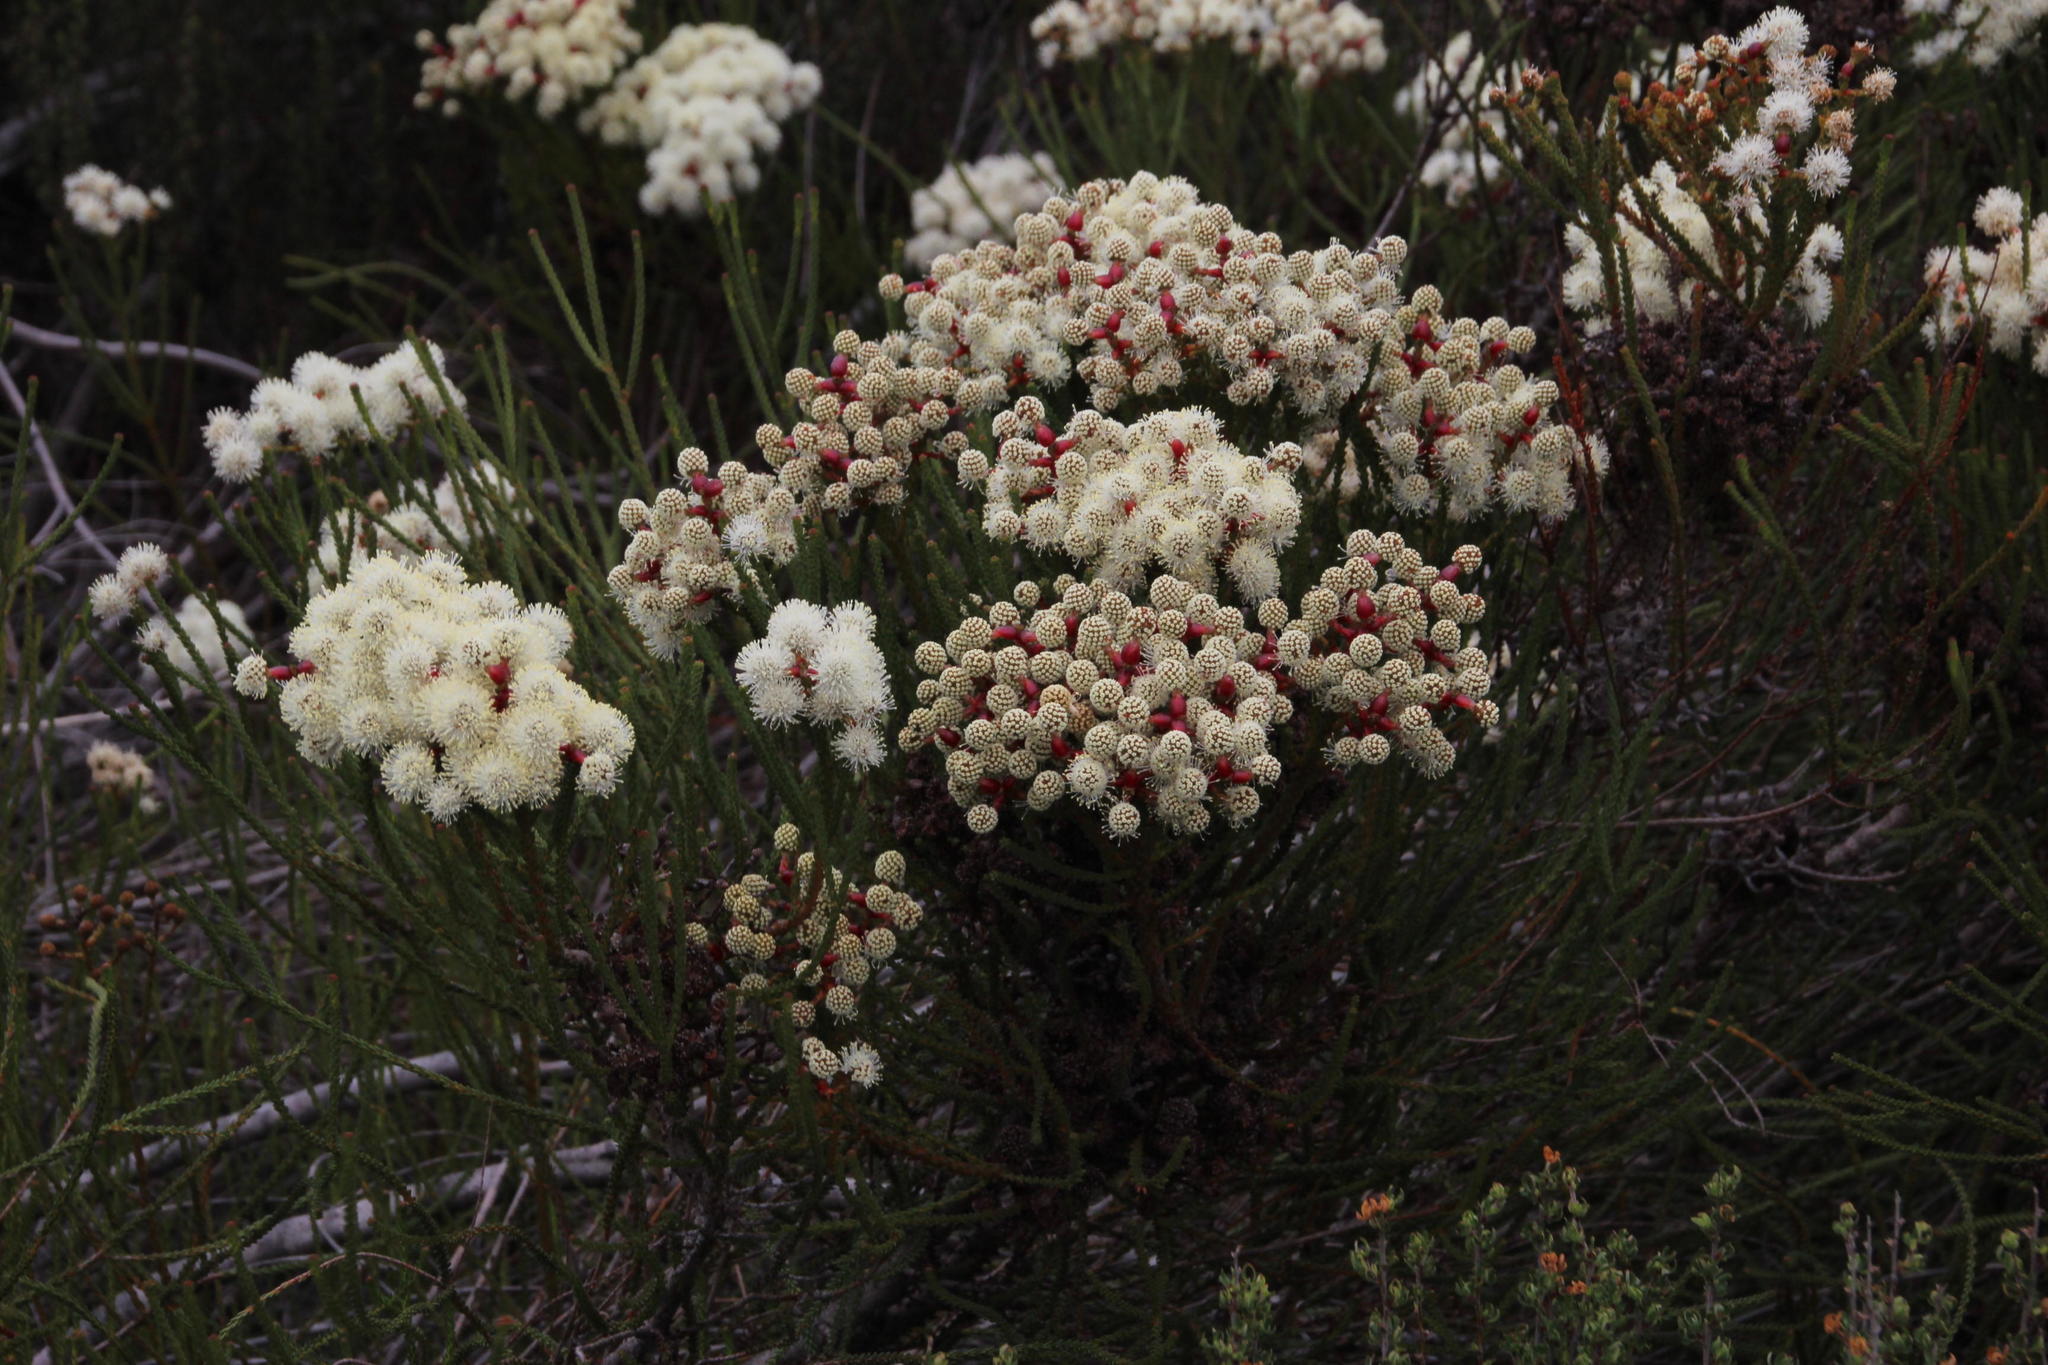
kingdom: Plantae
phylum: Tracheophyta
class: Magnoliopsida
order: Bruniales
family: Bruniaceae
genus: Berzelia
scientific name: Berzelia abrotanoides
